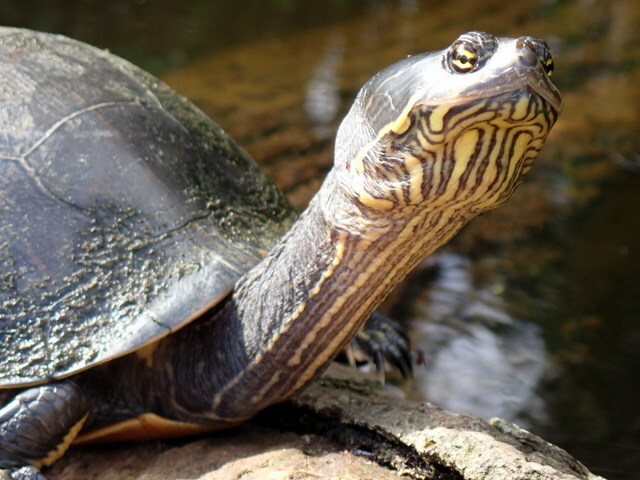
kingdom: Animalia
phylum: Chordata
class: Testudines
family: Emydidae
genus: Deirochelys
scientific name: Deirochelys reticularia
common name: Chicken turtle
